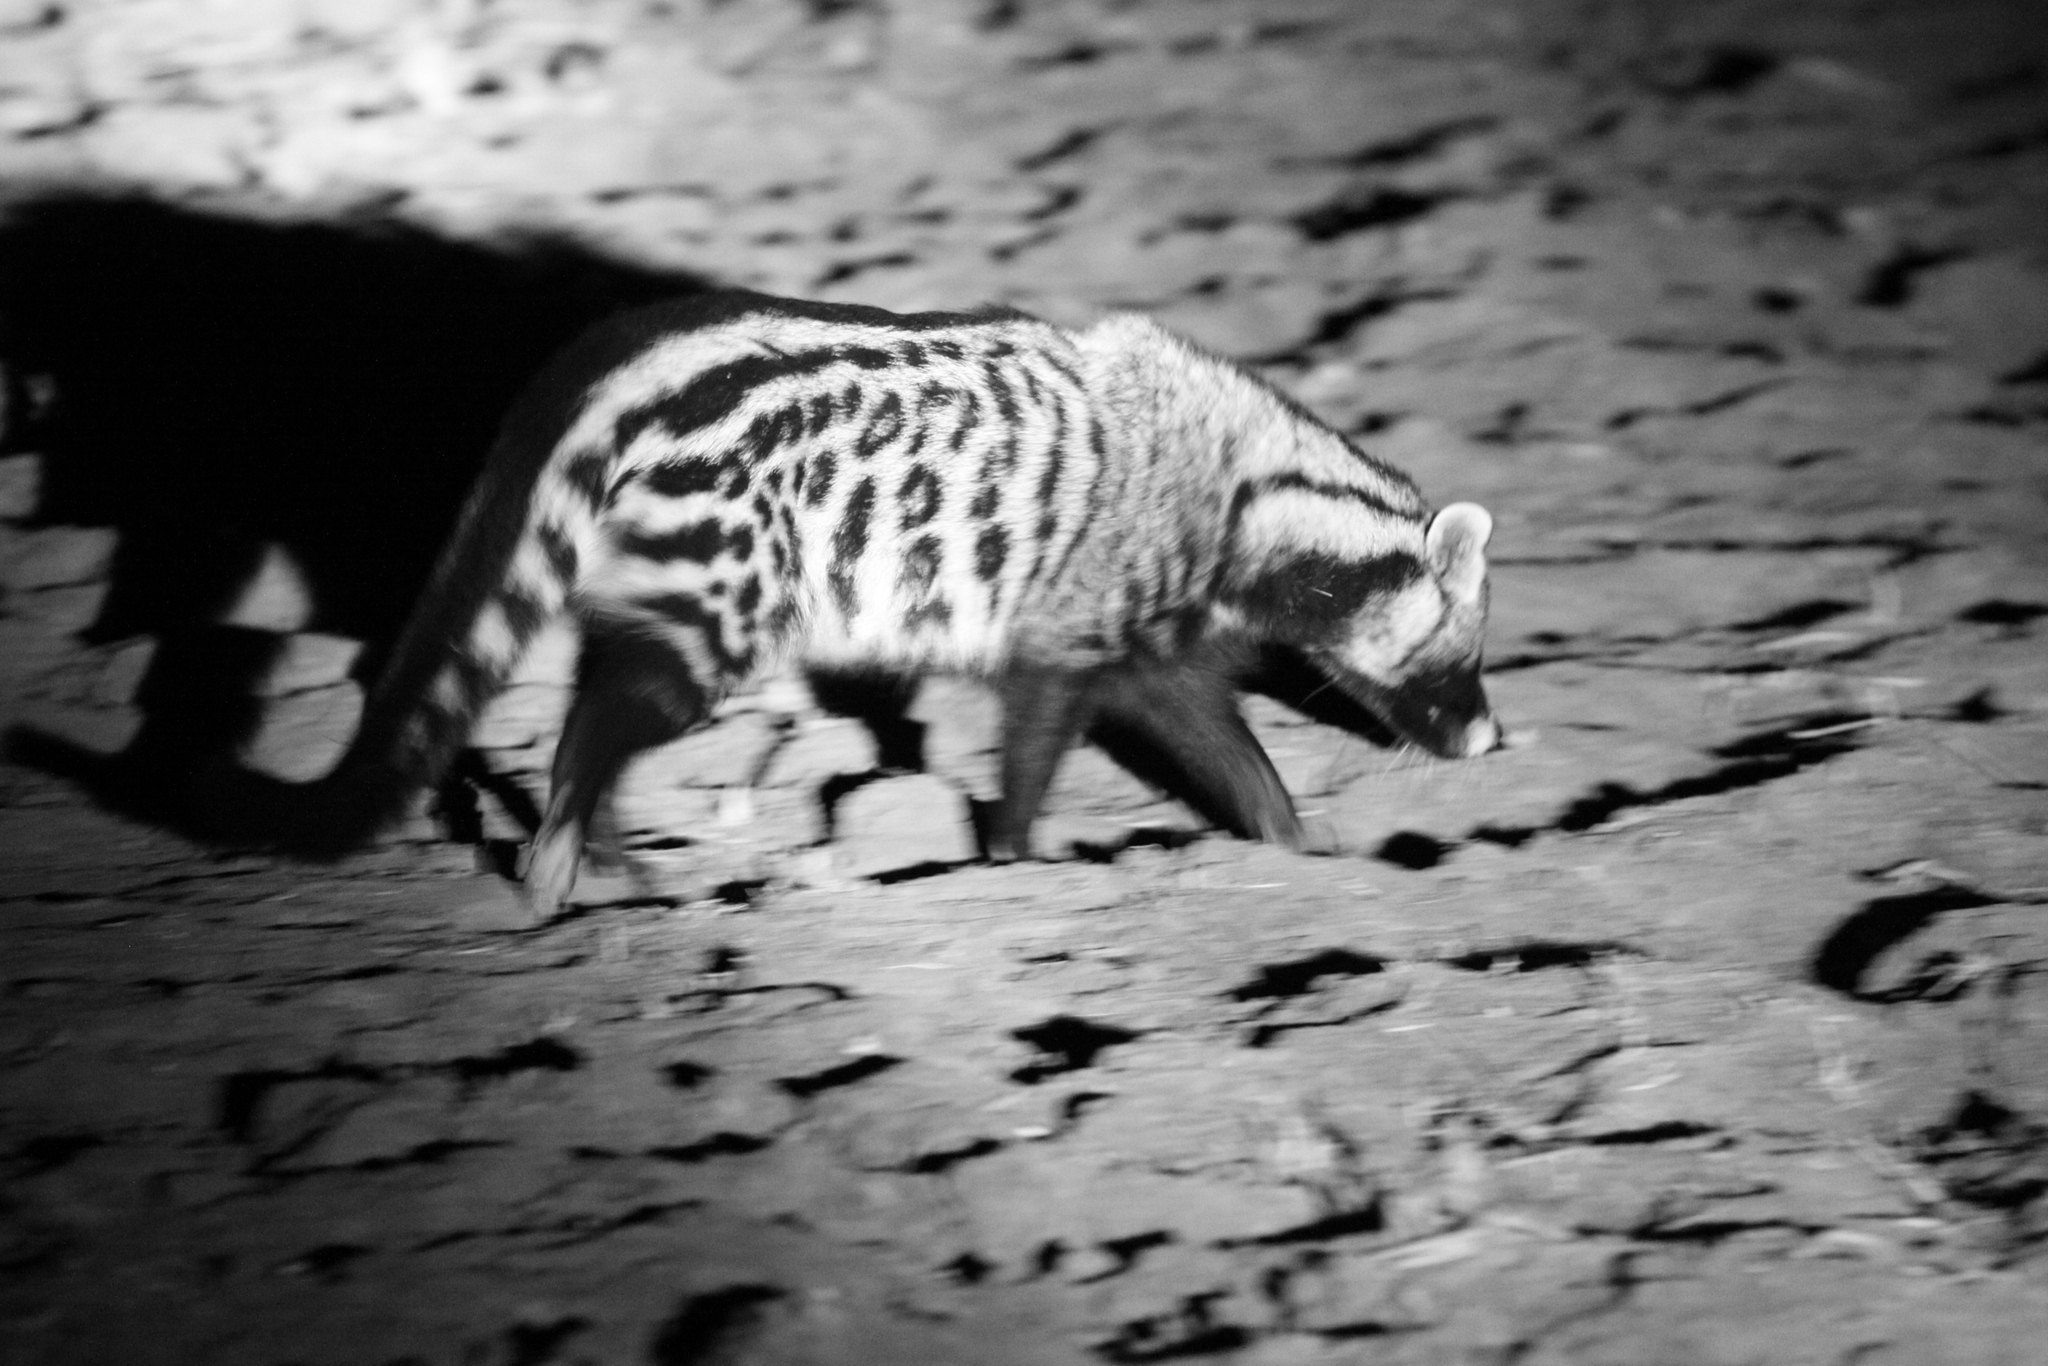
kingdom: Animalia
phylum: Chordata
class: Mammalia
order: Carnivora
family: Viverridae
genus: Civettictis
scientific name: Civettictis civetta
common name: African civet
